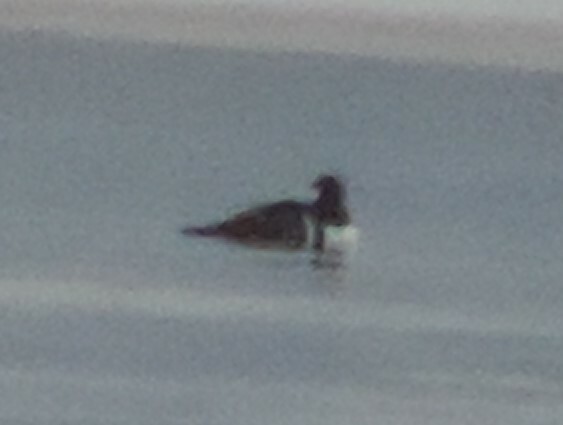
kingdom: Animalia
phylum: Chordata
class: Aves
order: Anseriformes
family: Anatidae
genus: Lophodytes
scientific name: Lophodytes cucullatus
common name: Hooded merganser
